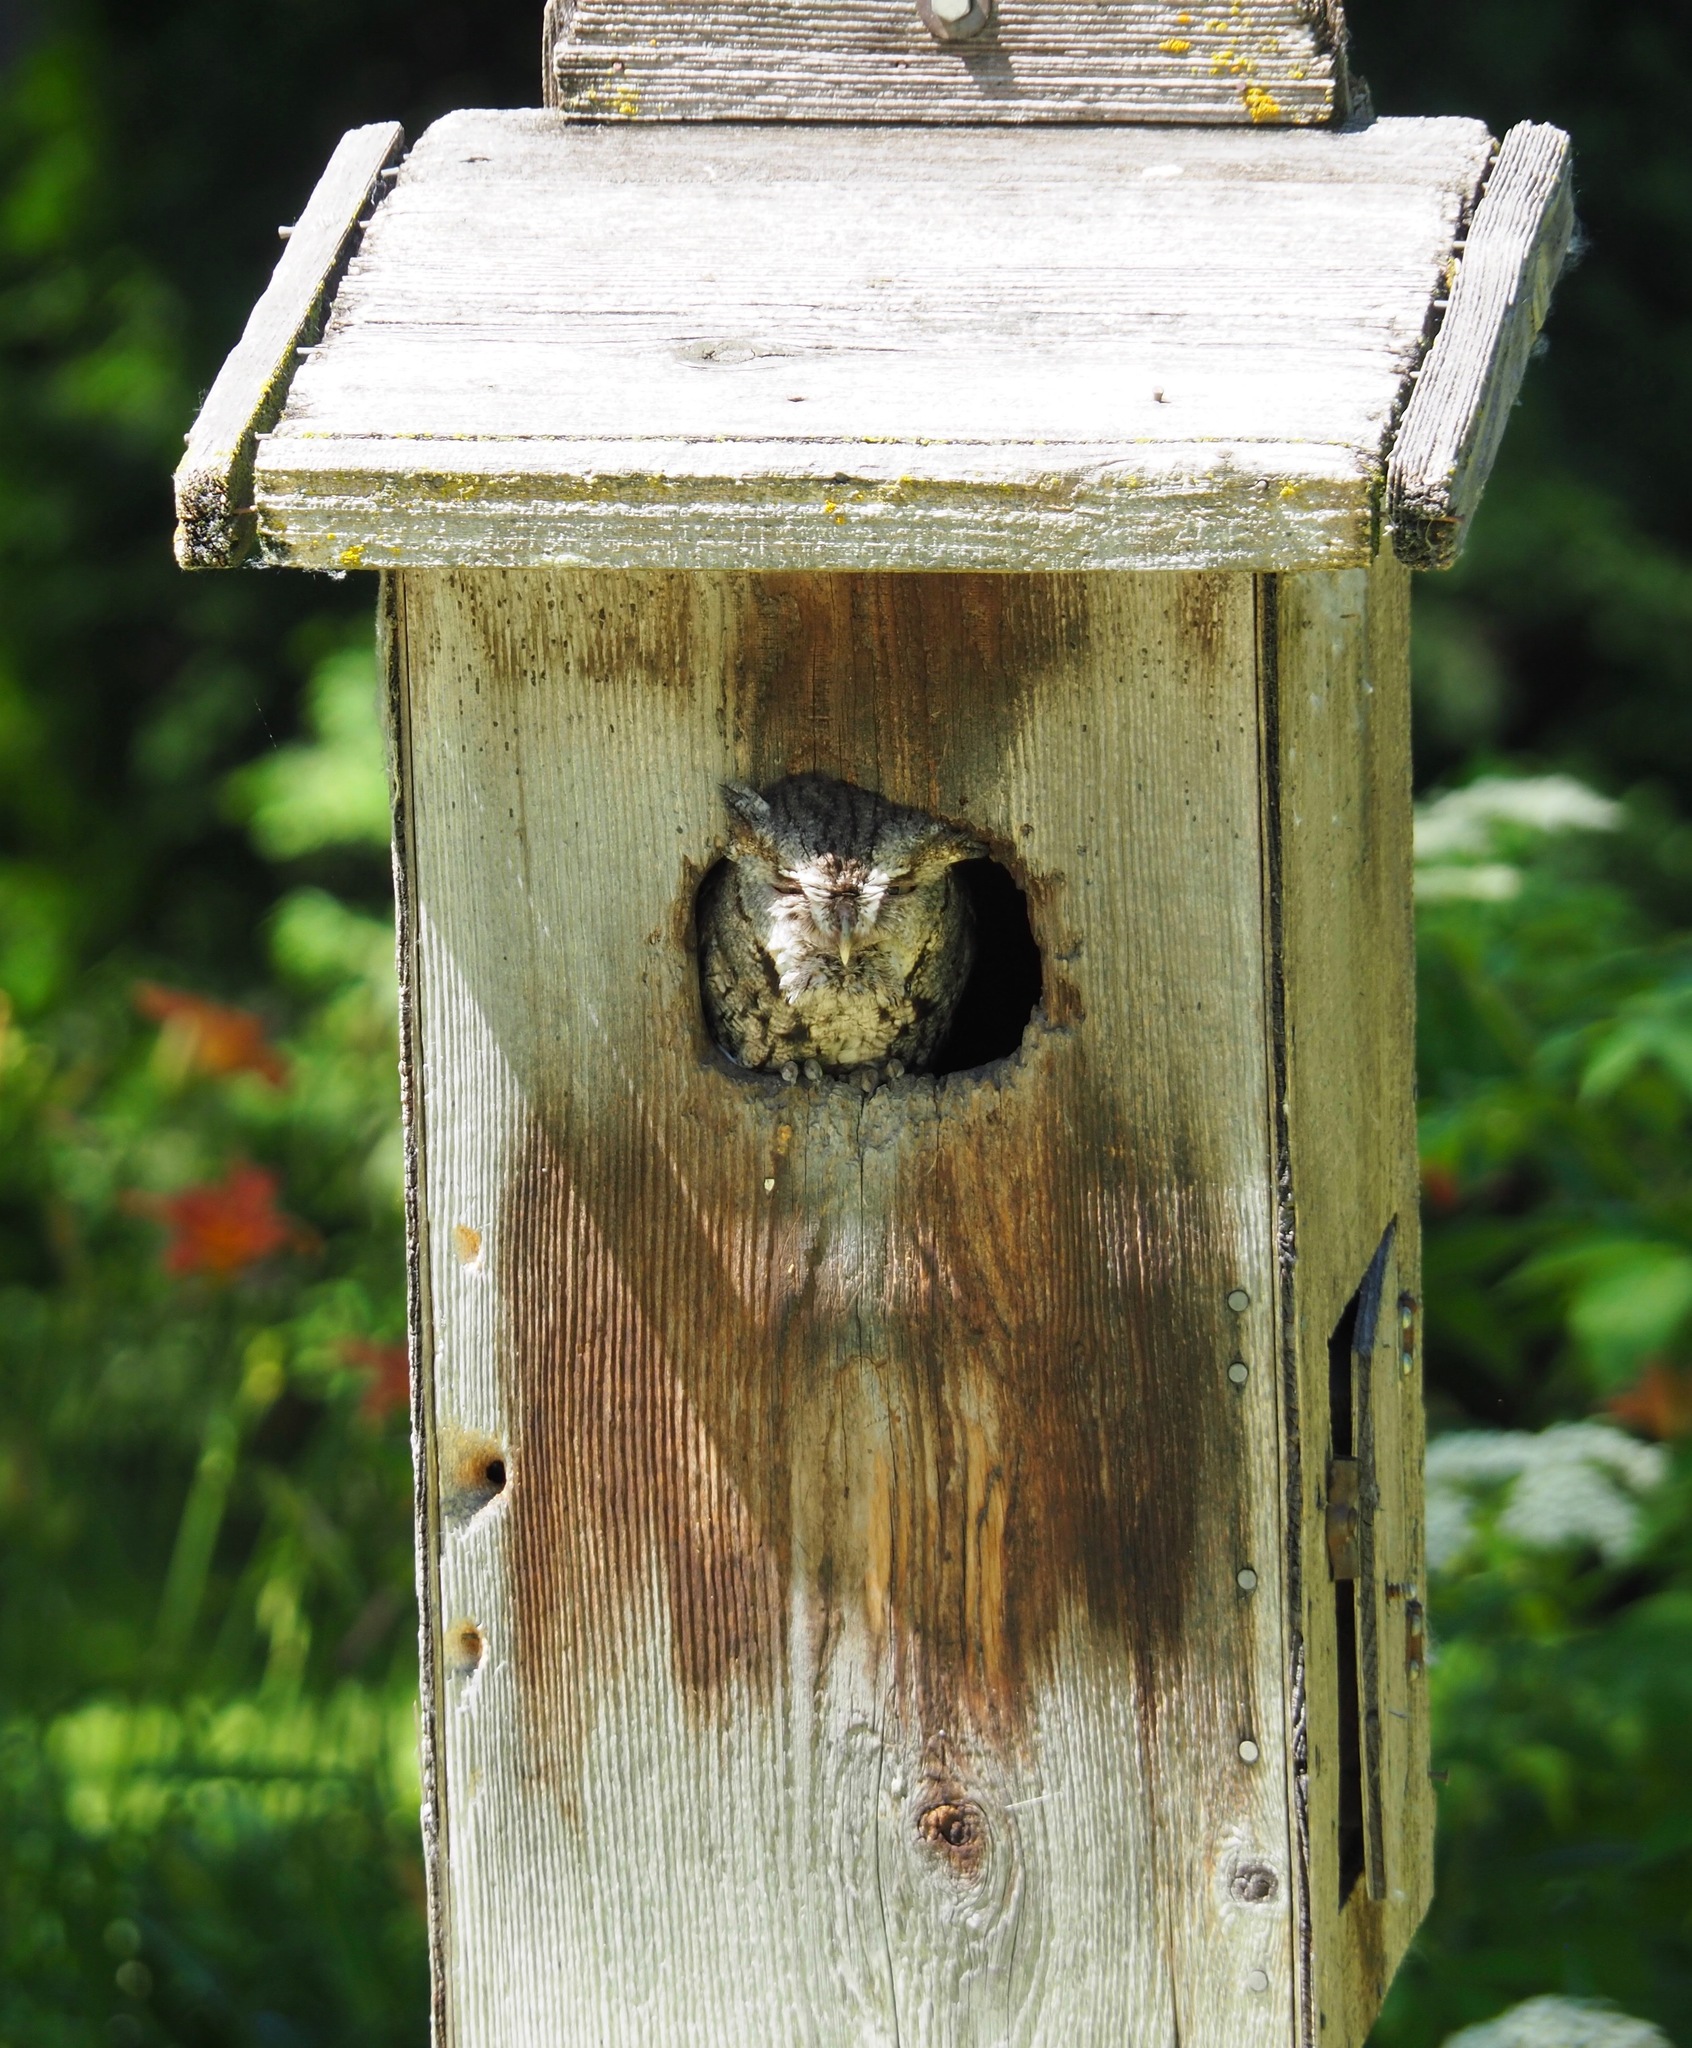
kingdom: Animalia
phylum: Chordata
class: Aves
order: Strigiformes
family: Strigidae
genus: Megascops
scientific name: Megascops asio
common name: Eastern screech-owl
